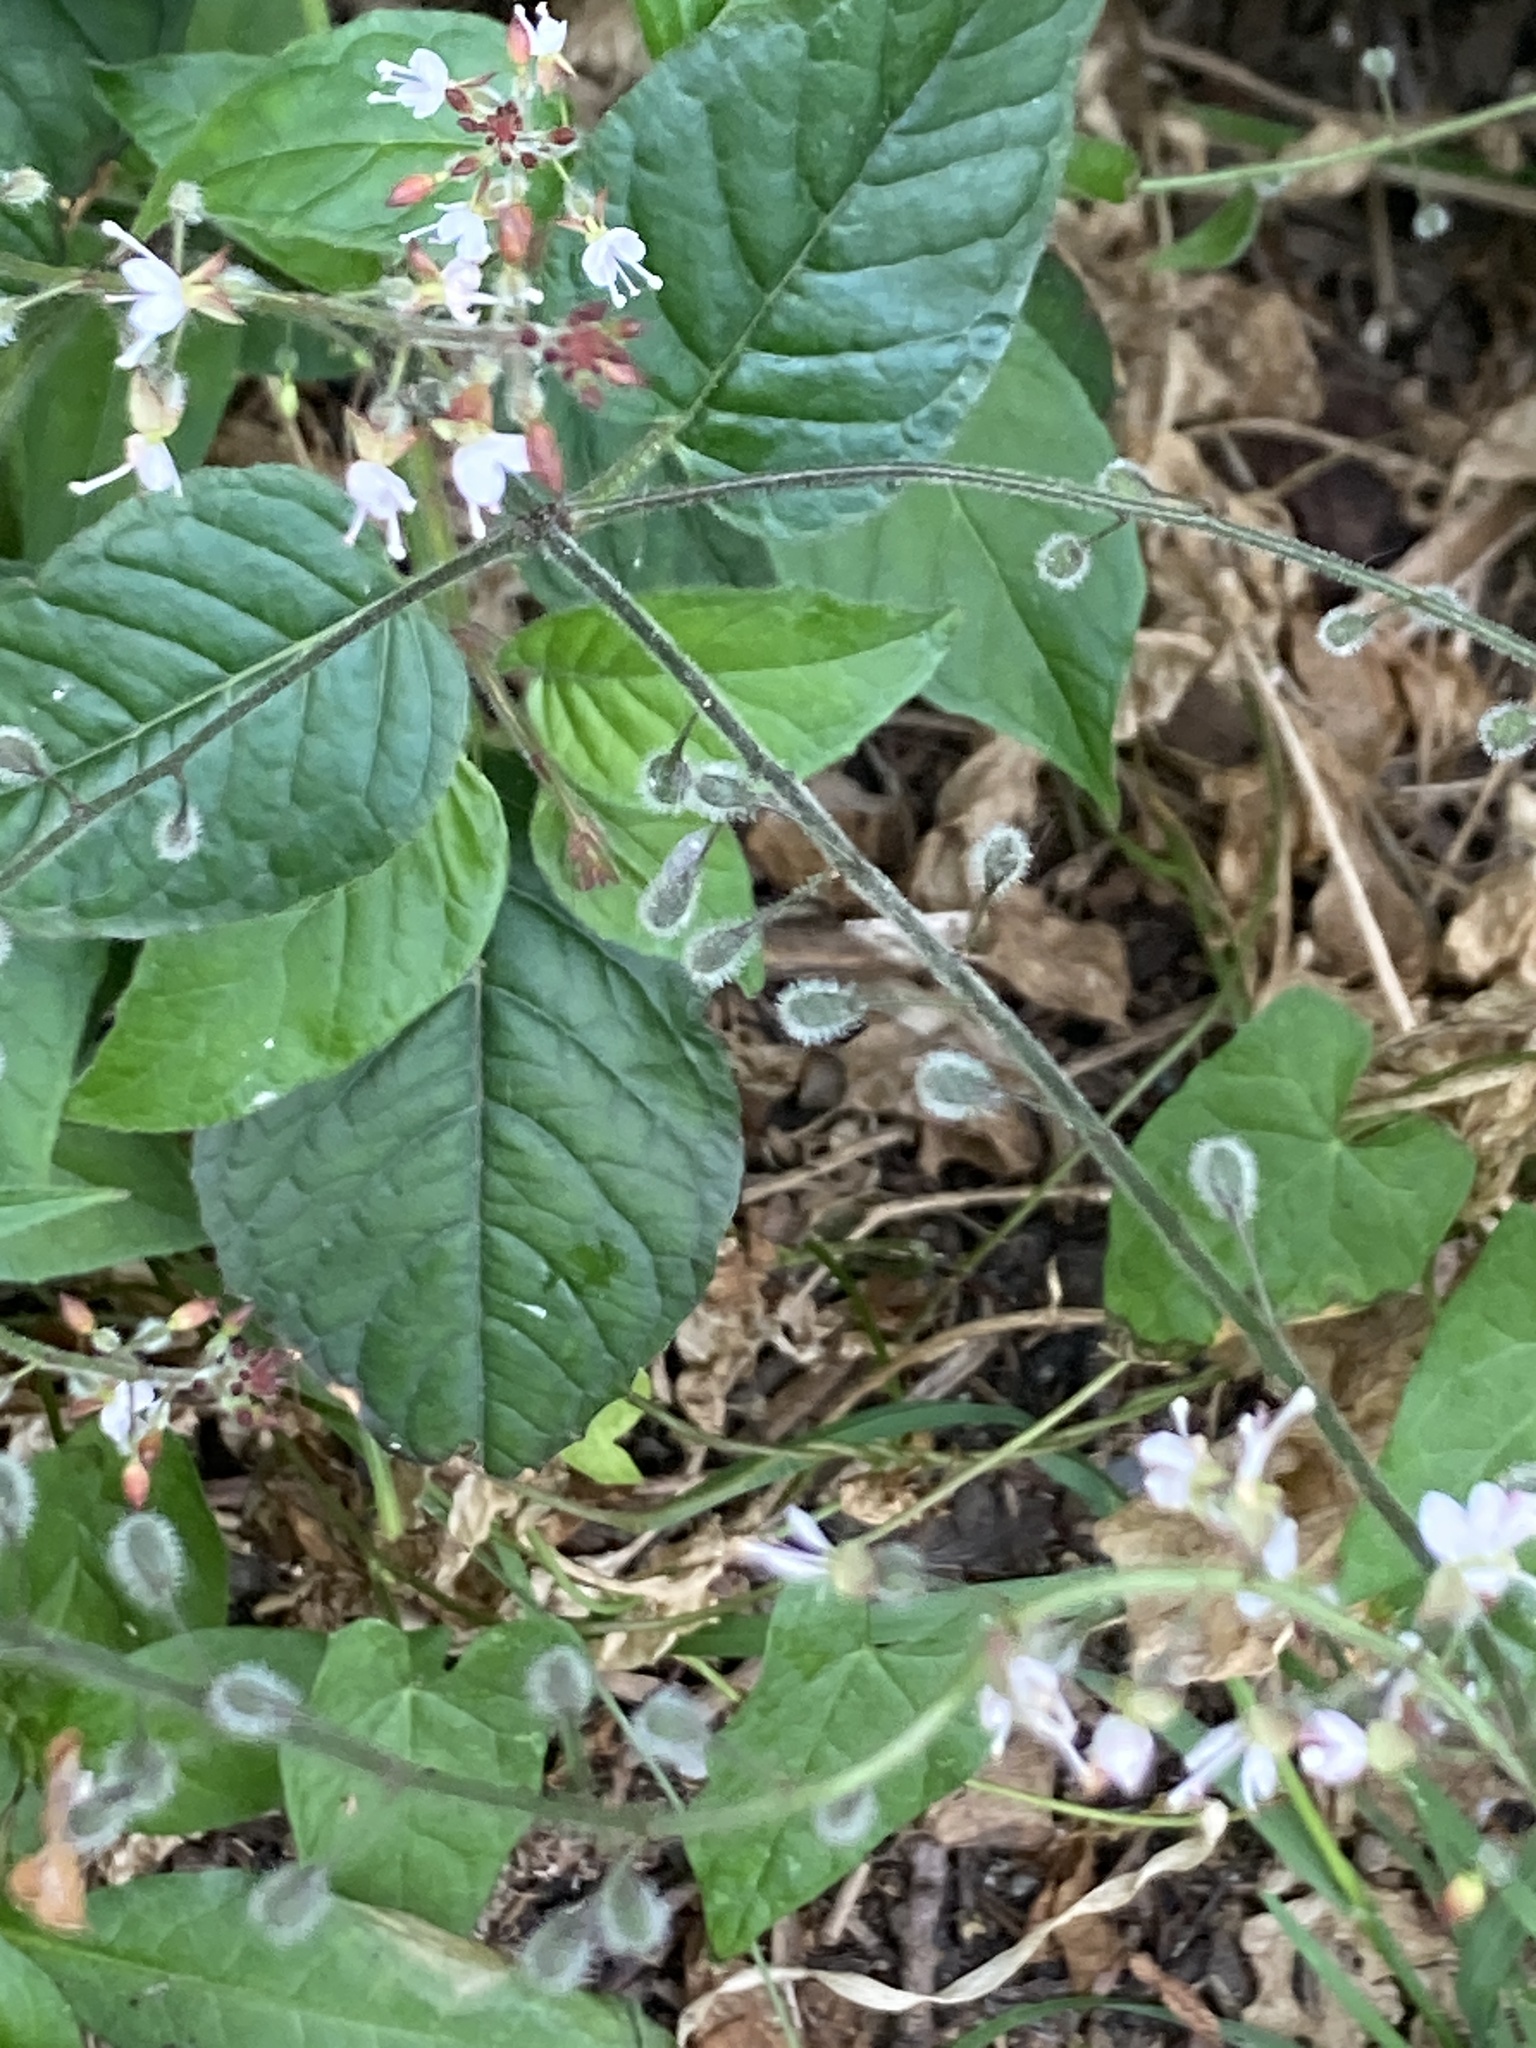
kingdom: Plantae
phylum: Tracheophyta
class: Magnoliopsida
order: Myrtales
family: Onagraceae
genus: Circaea
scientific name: Circaea lutetiana
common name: Enchanter's-nightshade
